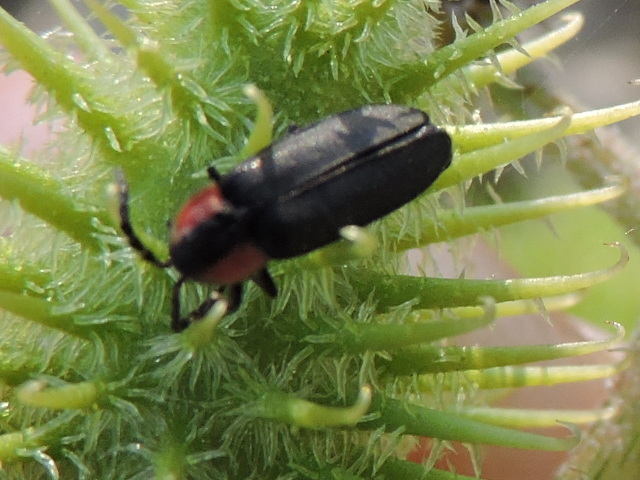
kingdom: Animalia
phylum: Arthropoda
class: Insecta
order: Coleoptera
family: Lampyridae
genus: Pyropyga
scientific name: Pyropyga decipiens
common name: Sneaky elf
